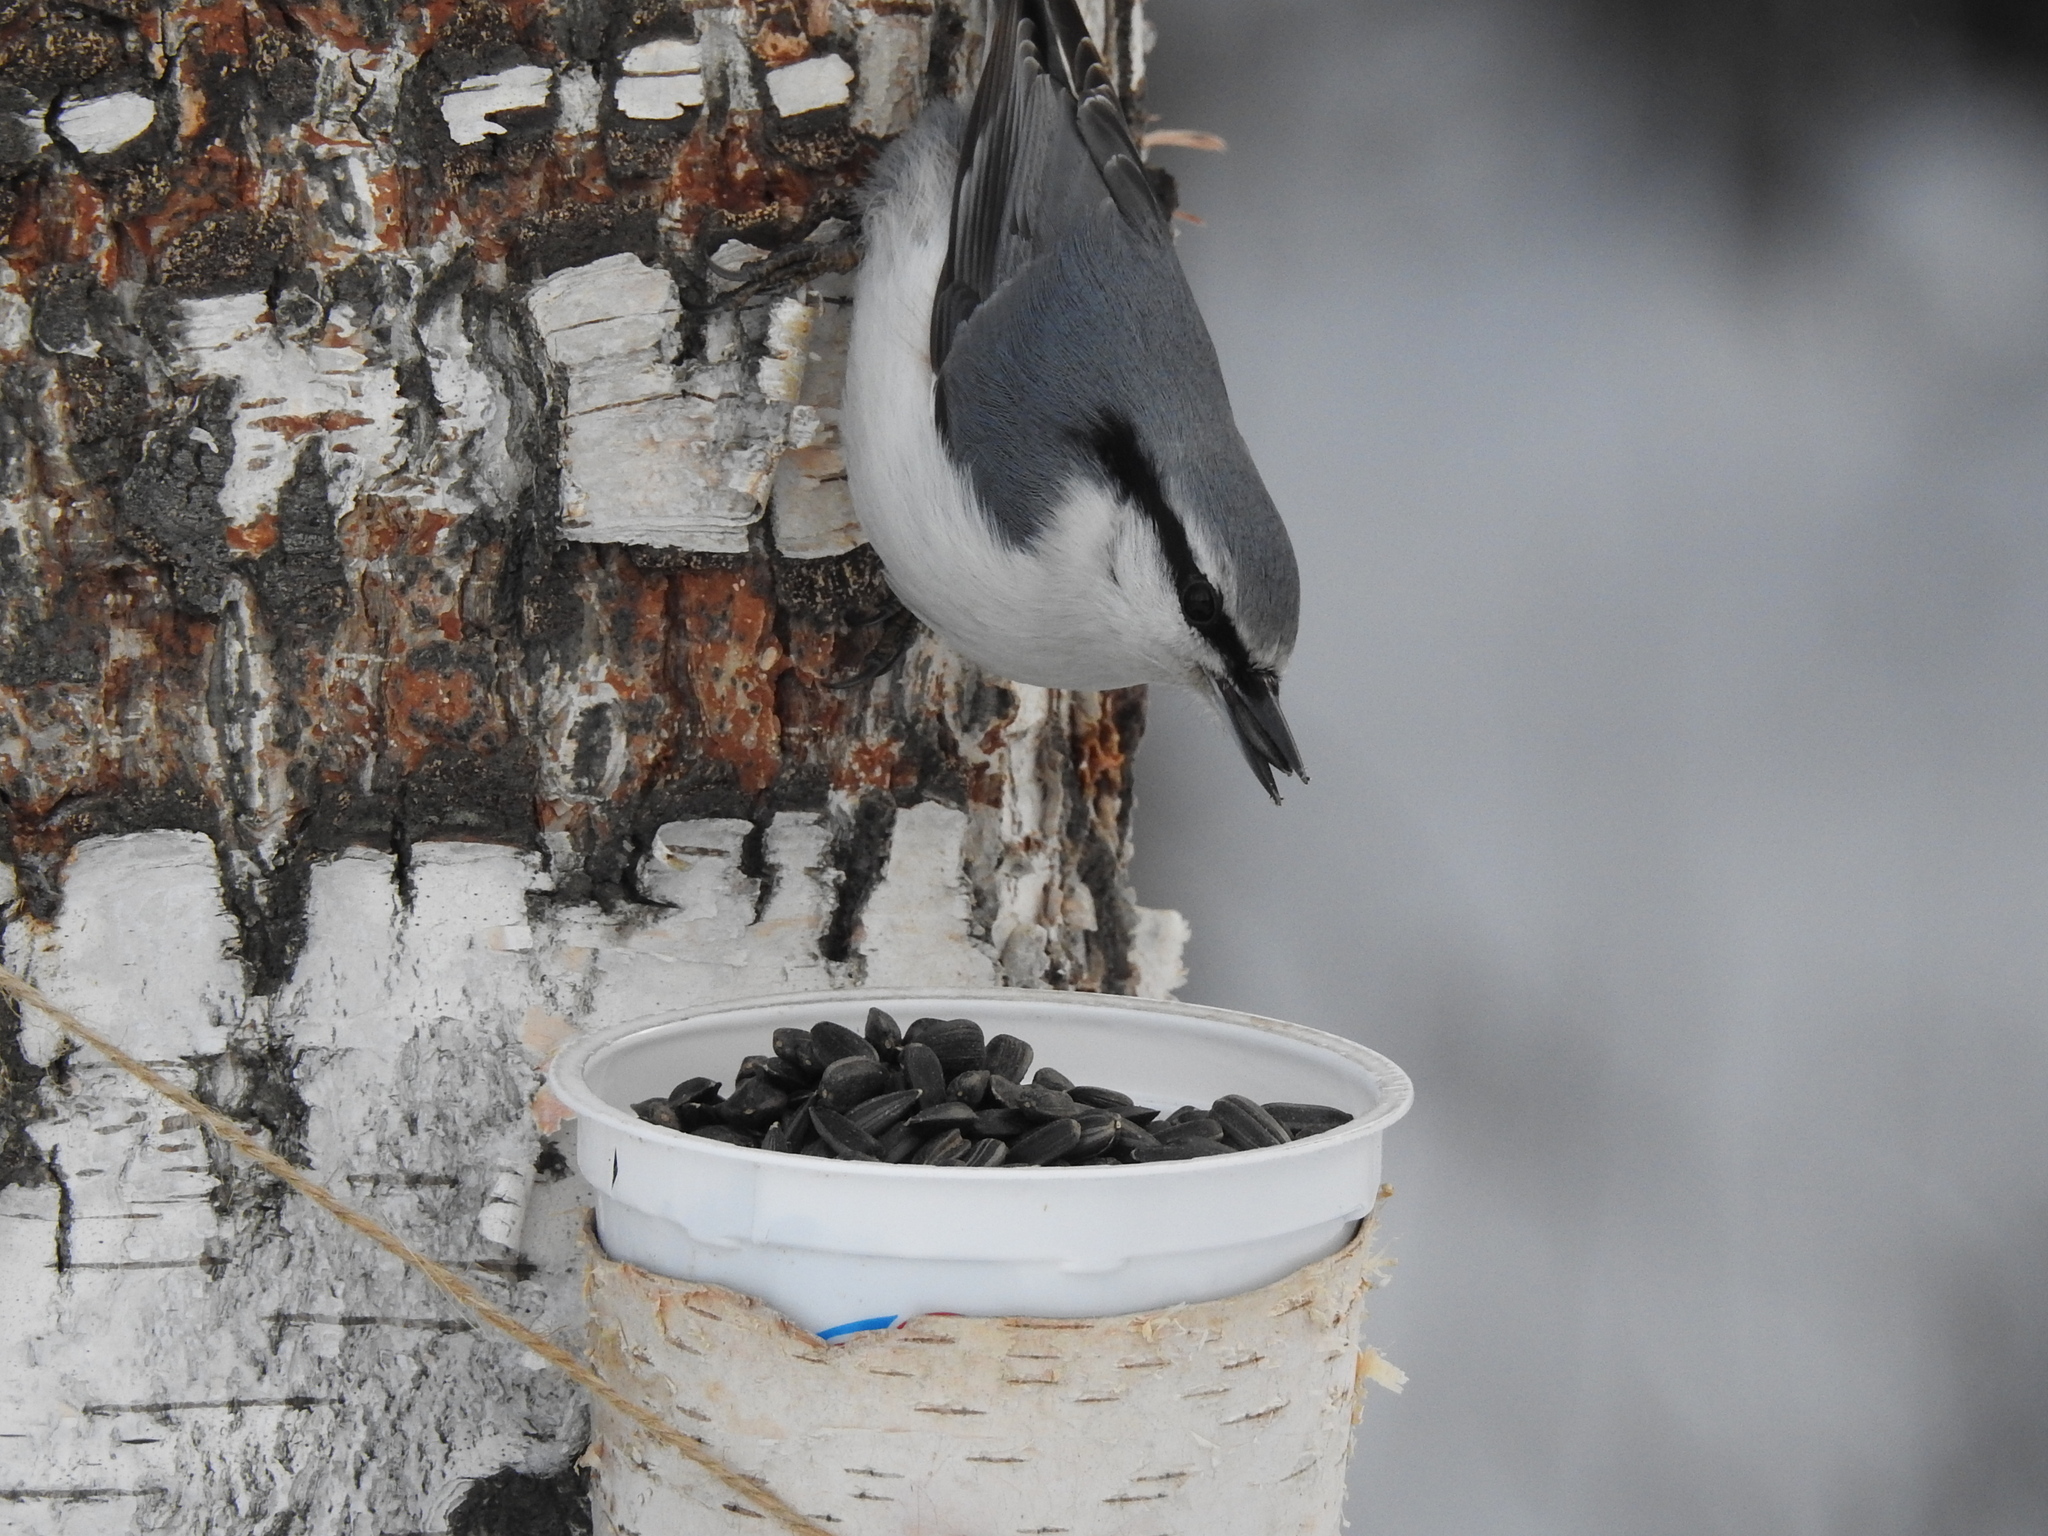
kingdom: Animalia
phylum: Chordata
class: Aves
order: Passeriformes
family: Sittidae
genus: Sitta
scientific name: Sitta europaea
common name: Eurasian nuthatch
